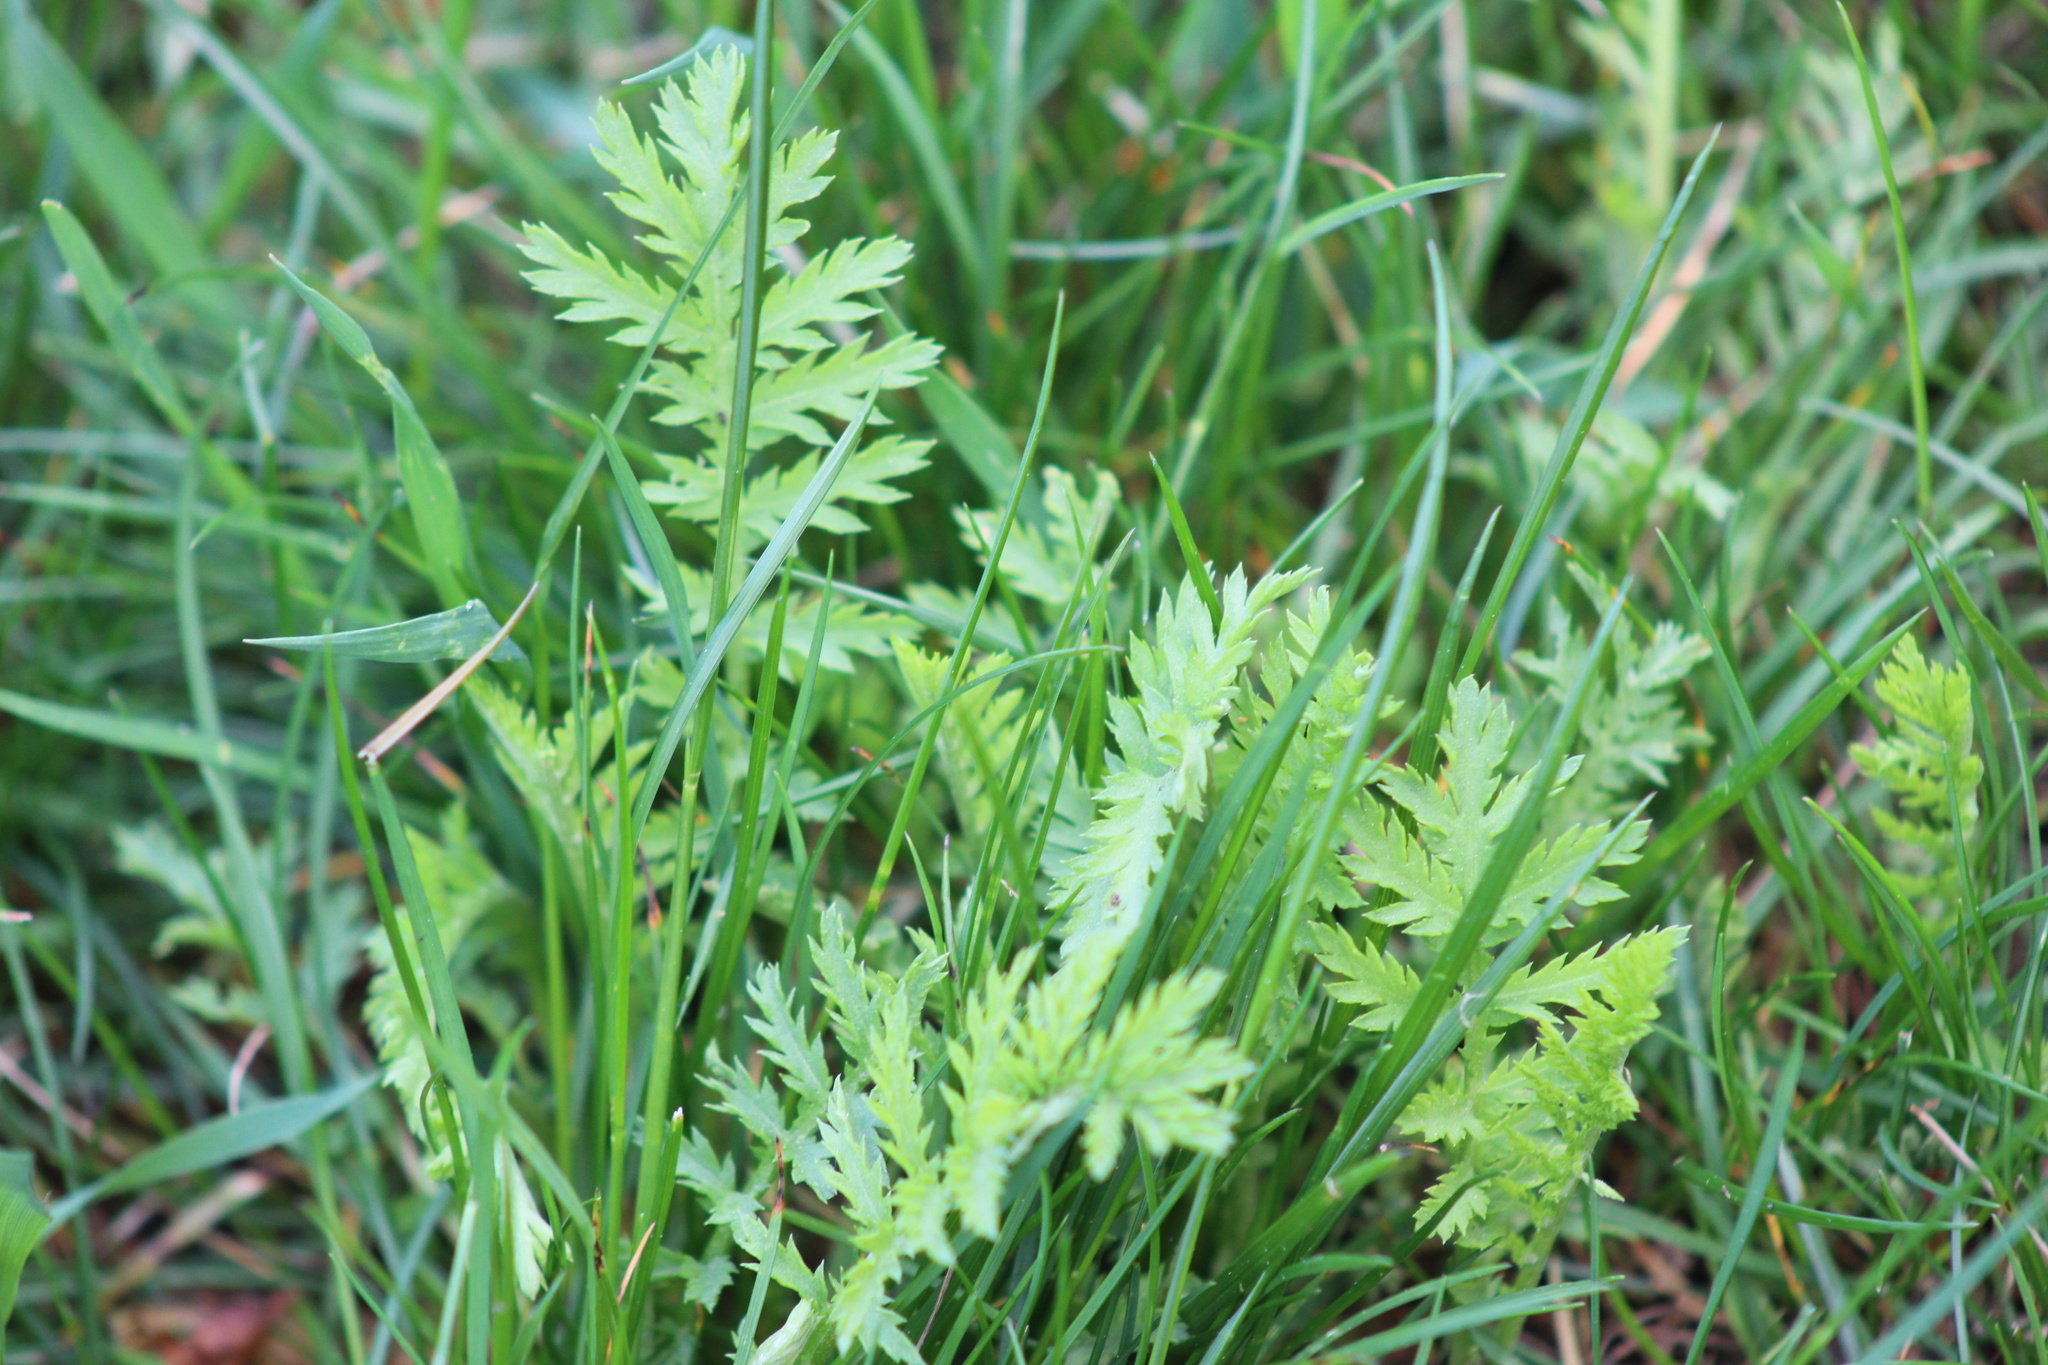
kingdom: Plantae
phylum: Tracheophyta
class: Magnoliopsida
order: Apiales
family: Apiaceae
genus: Daucus
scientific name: Daucus carota
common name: Wild carrot
